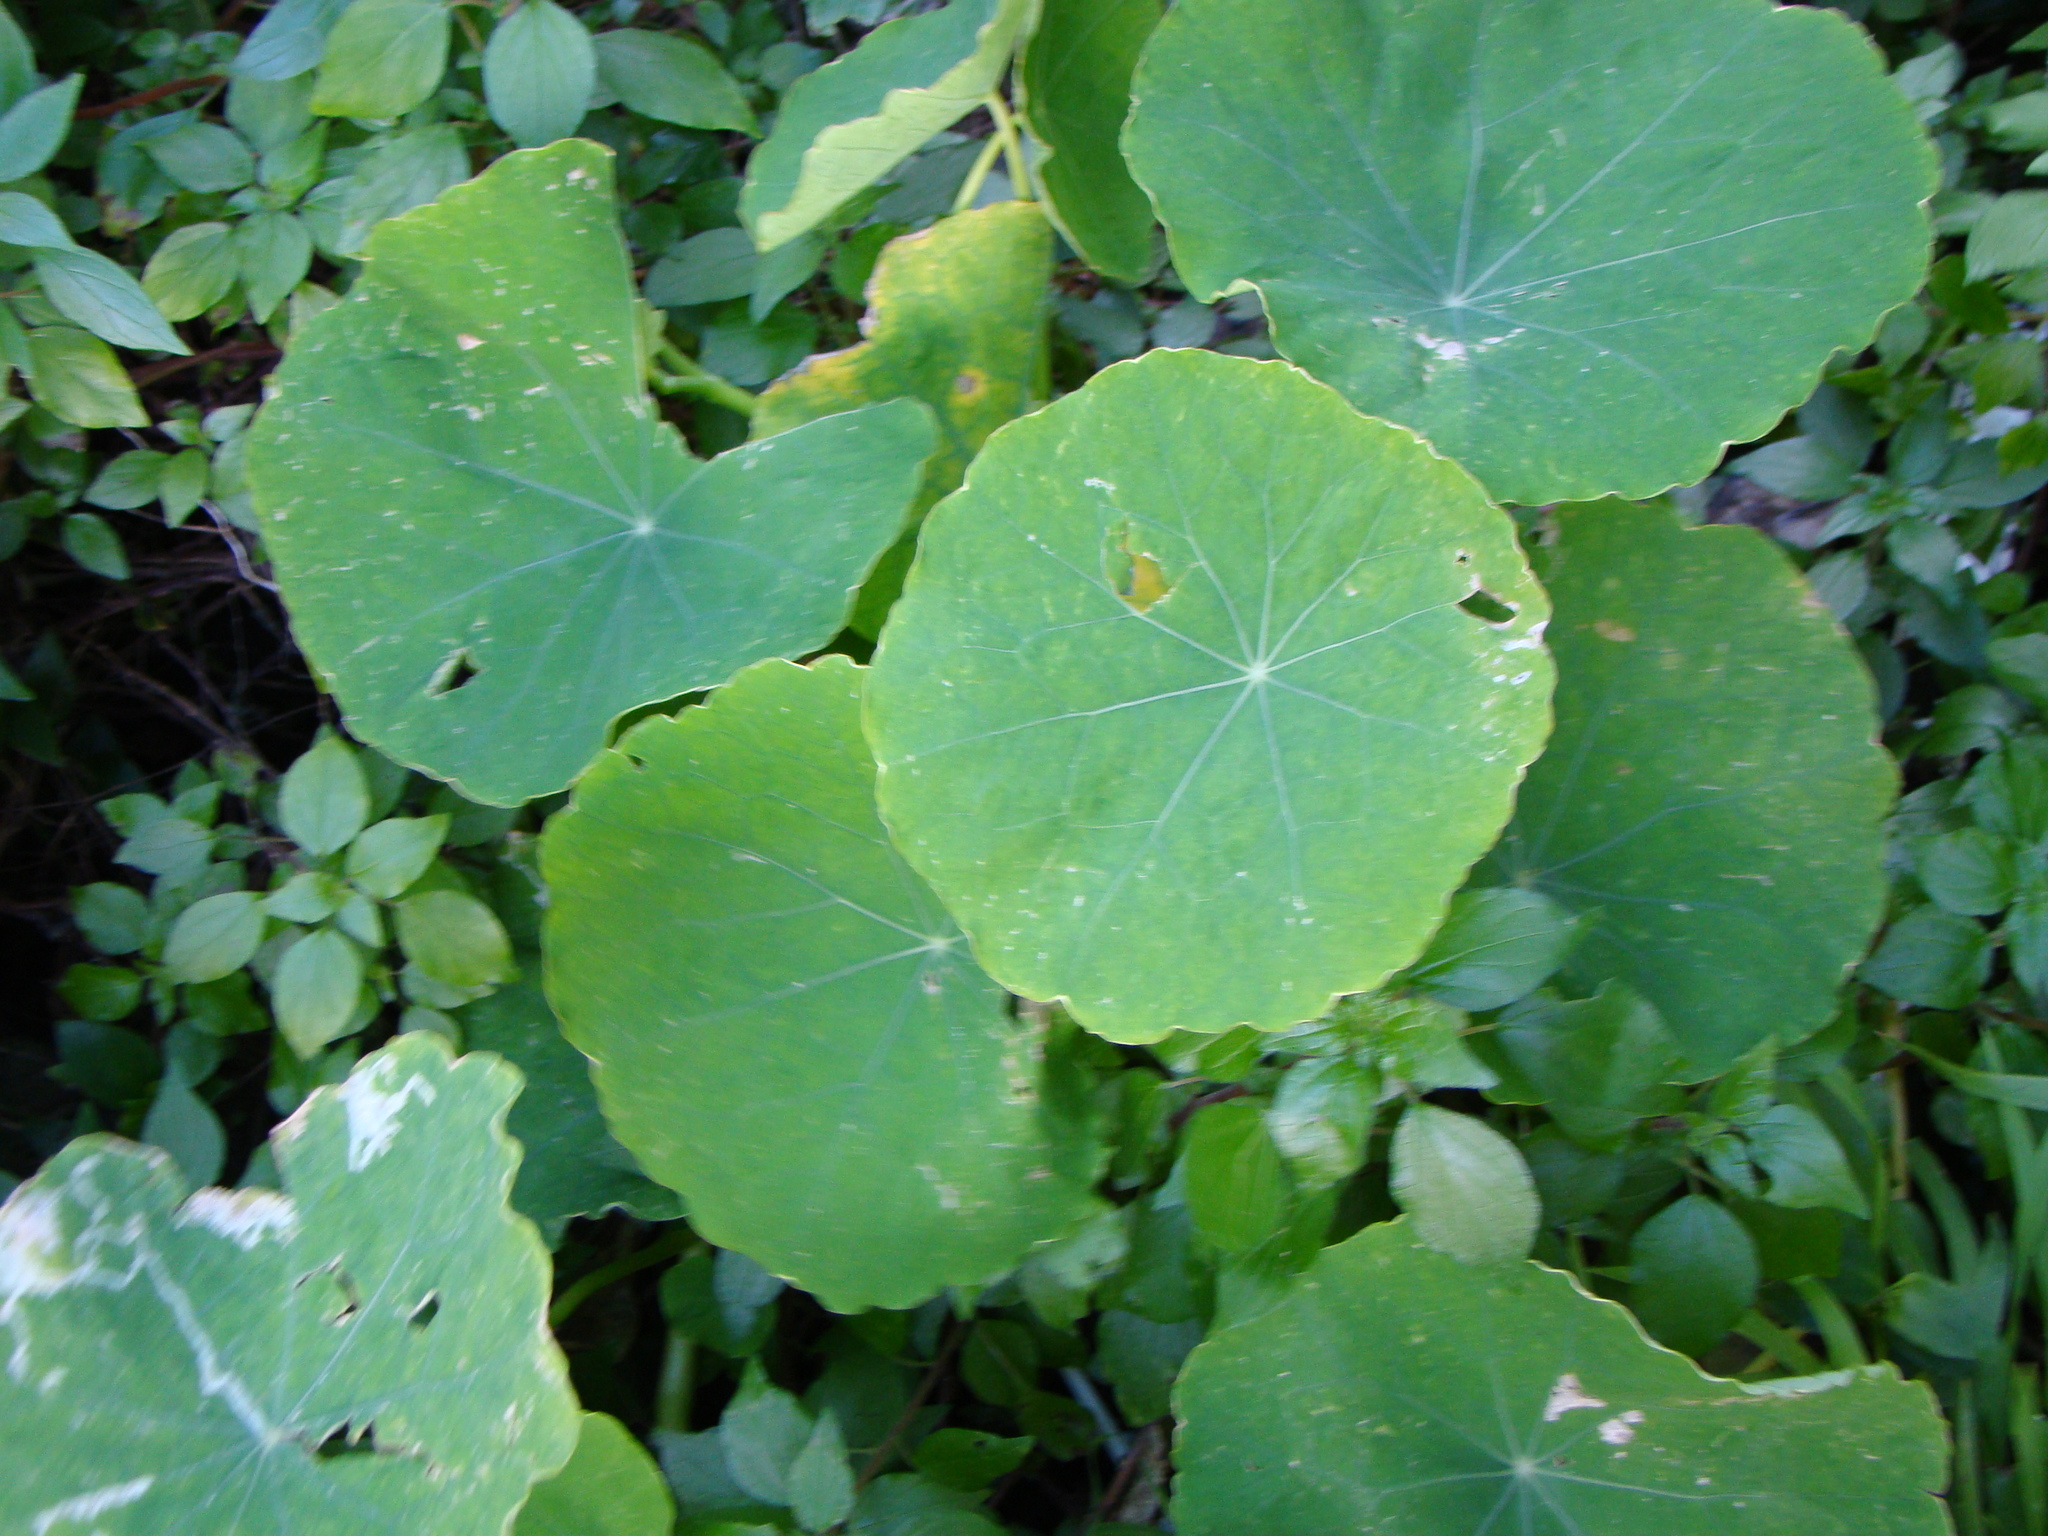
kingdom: Plantae
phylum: Tracheophyta
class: Magnoliopsida
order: Brassicales
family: Tropaeolaceae
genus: Tropaeolum
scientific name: Tropaeolum majus
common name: Nasturtium
